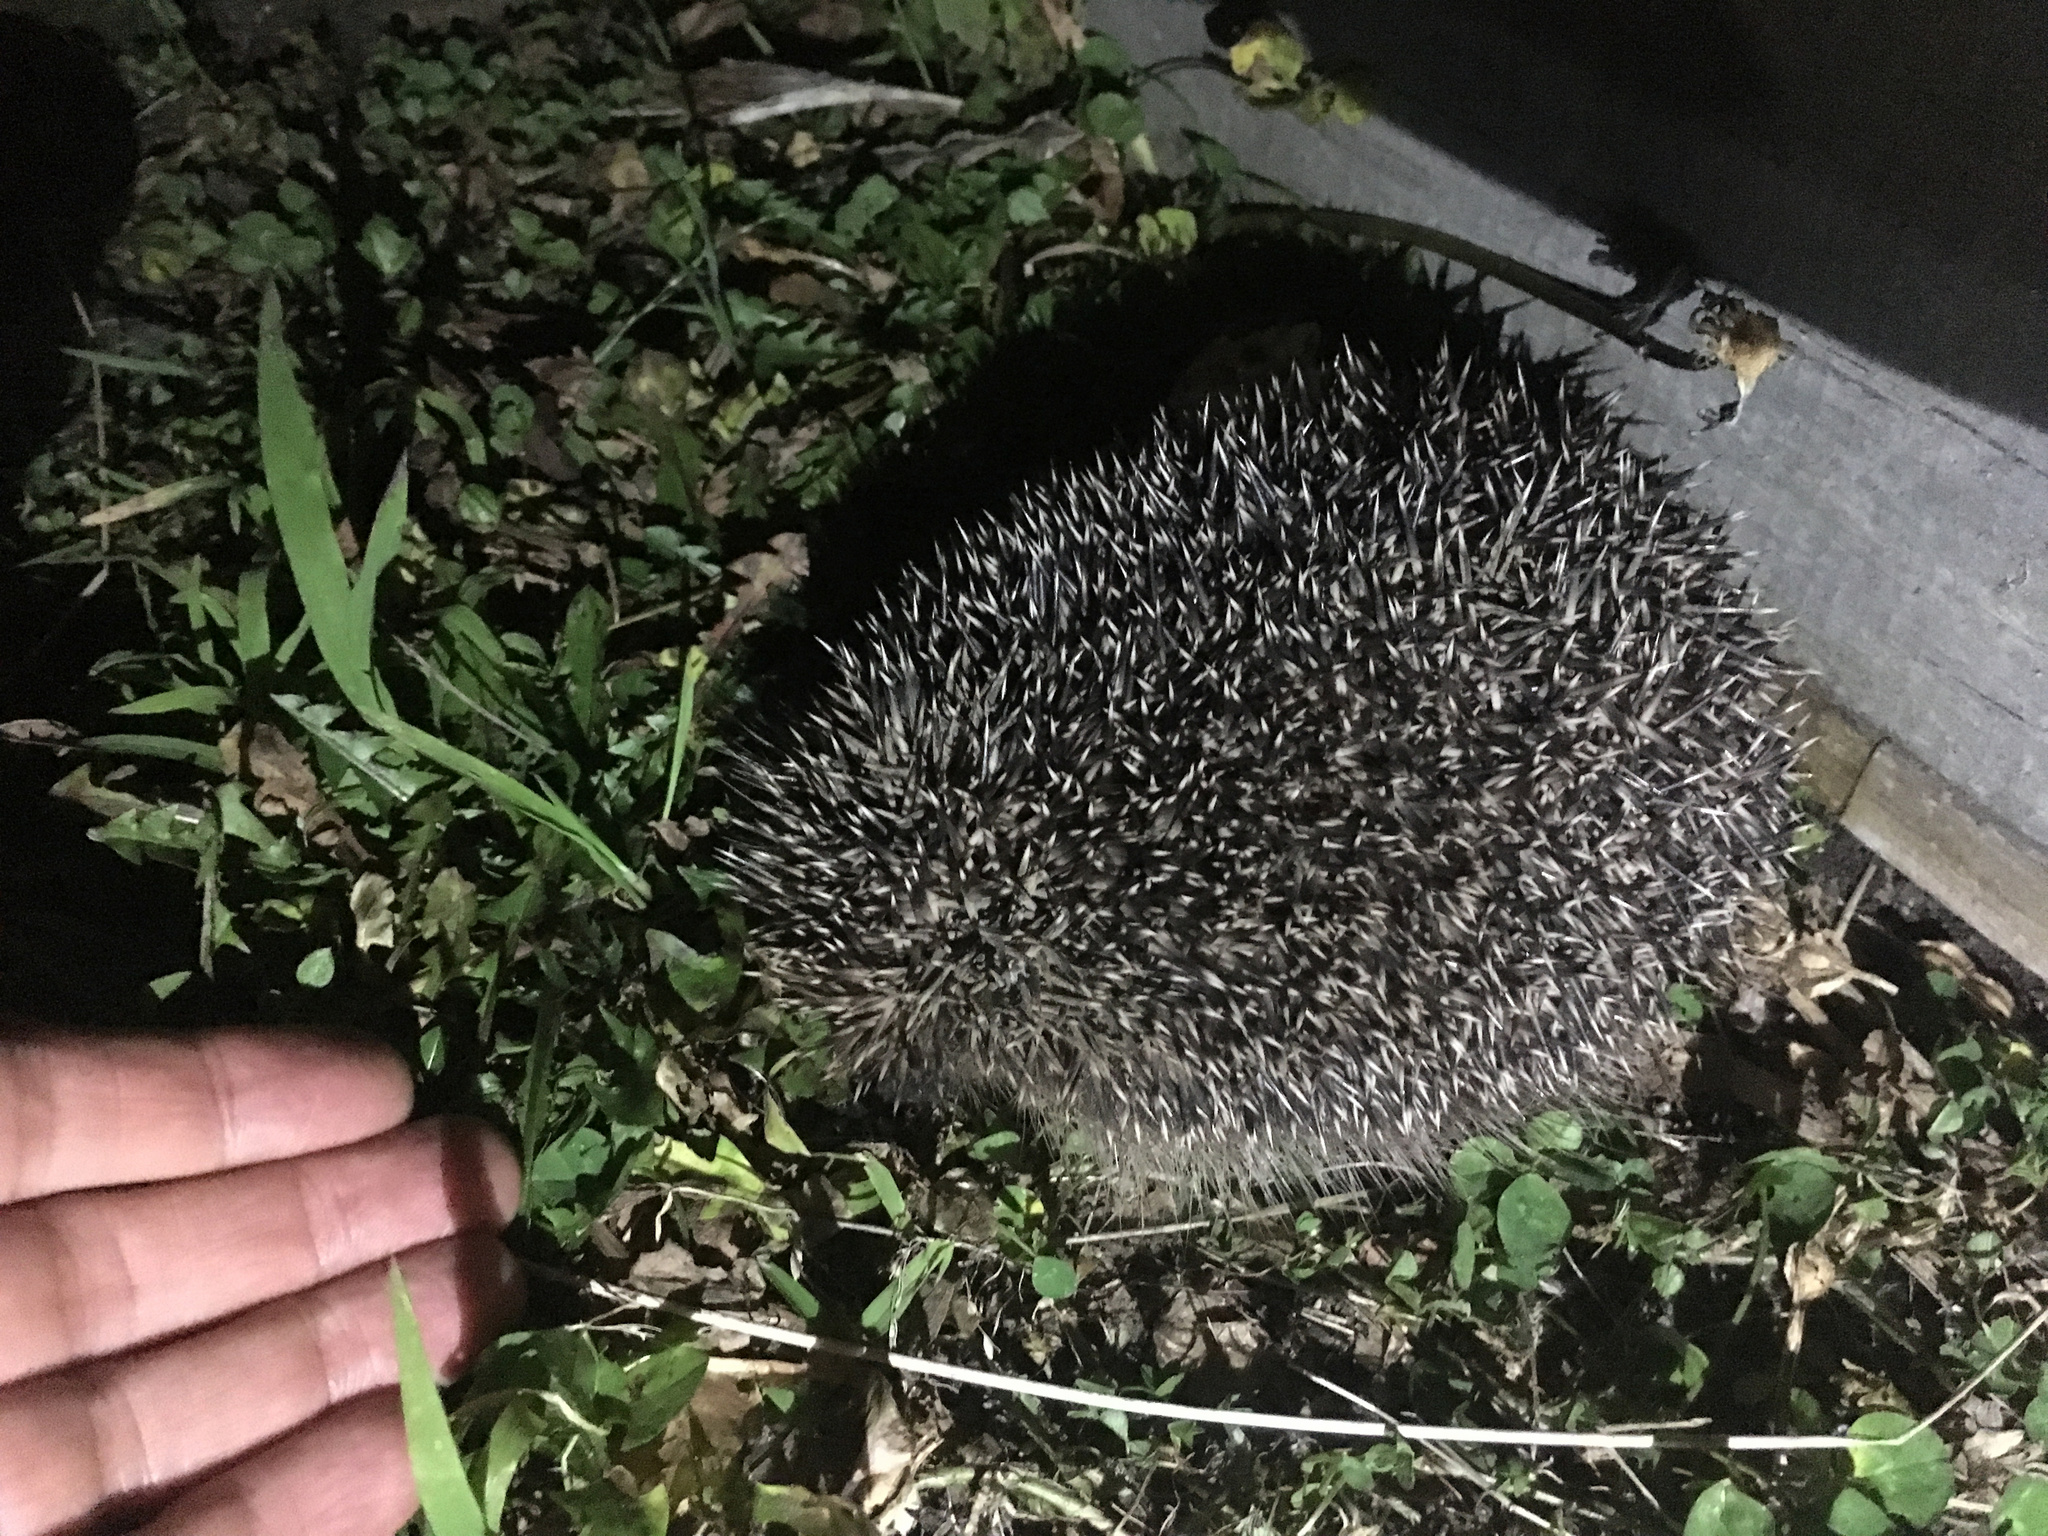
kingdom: Animalia
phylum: Chordata
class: Mammalia
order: Erinaceomorpha
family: Erinaceidae
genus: Erinaceus
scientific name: Erinaceus europaeus
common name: West european hedgehog
